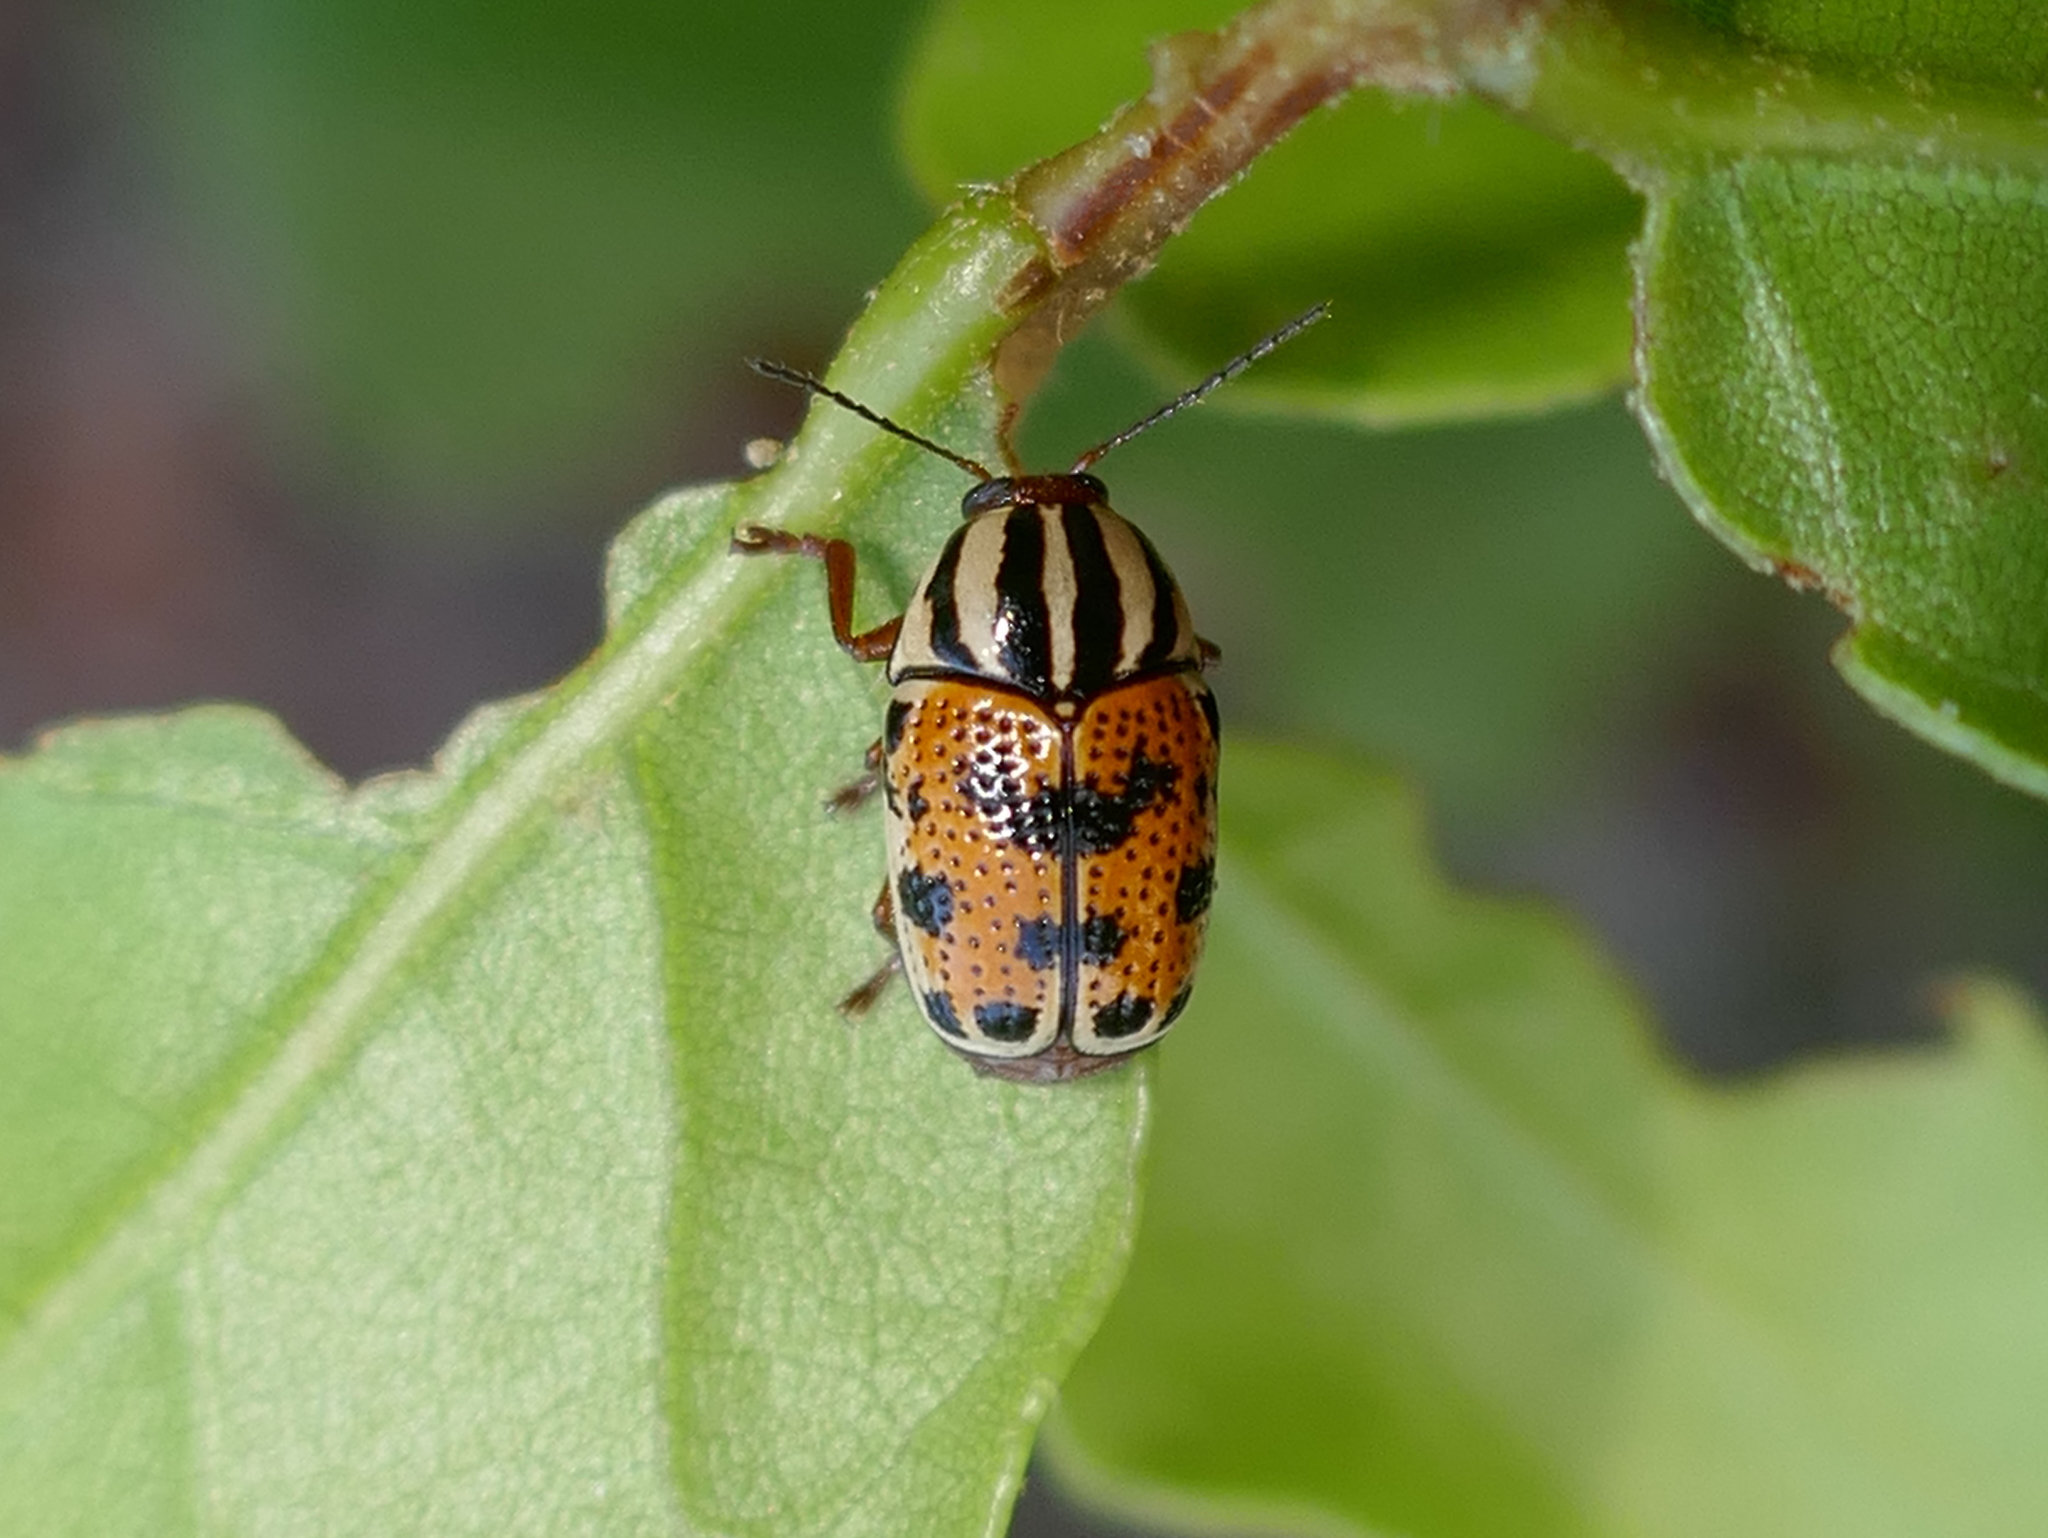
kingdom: Animalia
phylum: Arthropoda
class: Insecta
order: Coleoptera
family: Chrysomelidae
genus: Cryptocephalus
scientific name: Cryptocephalus bivius
